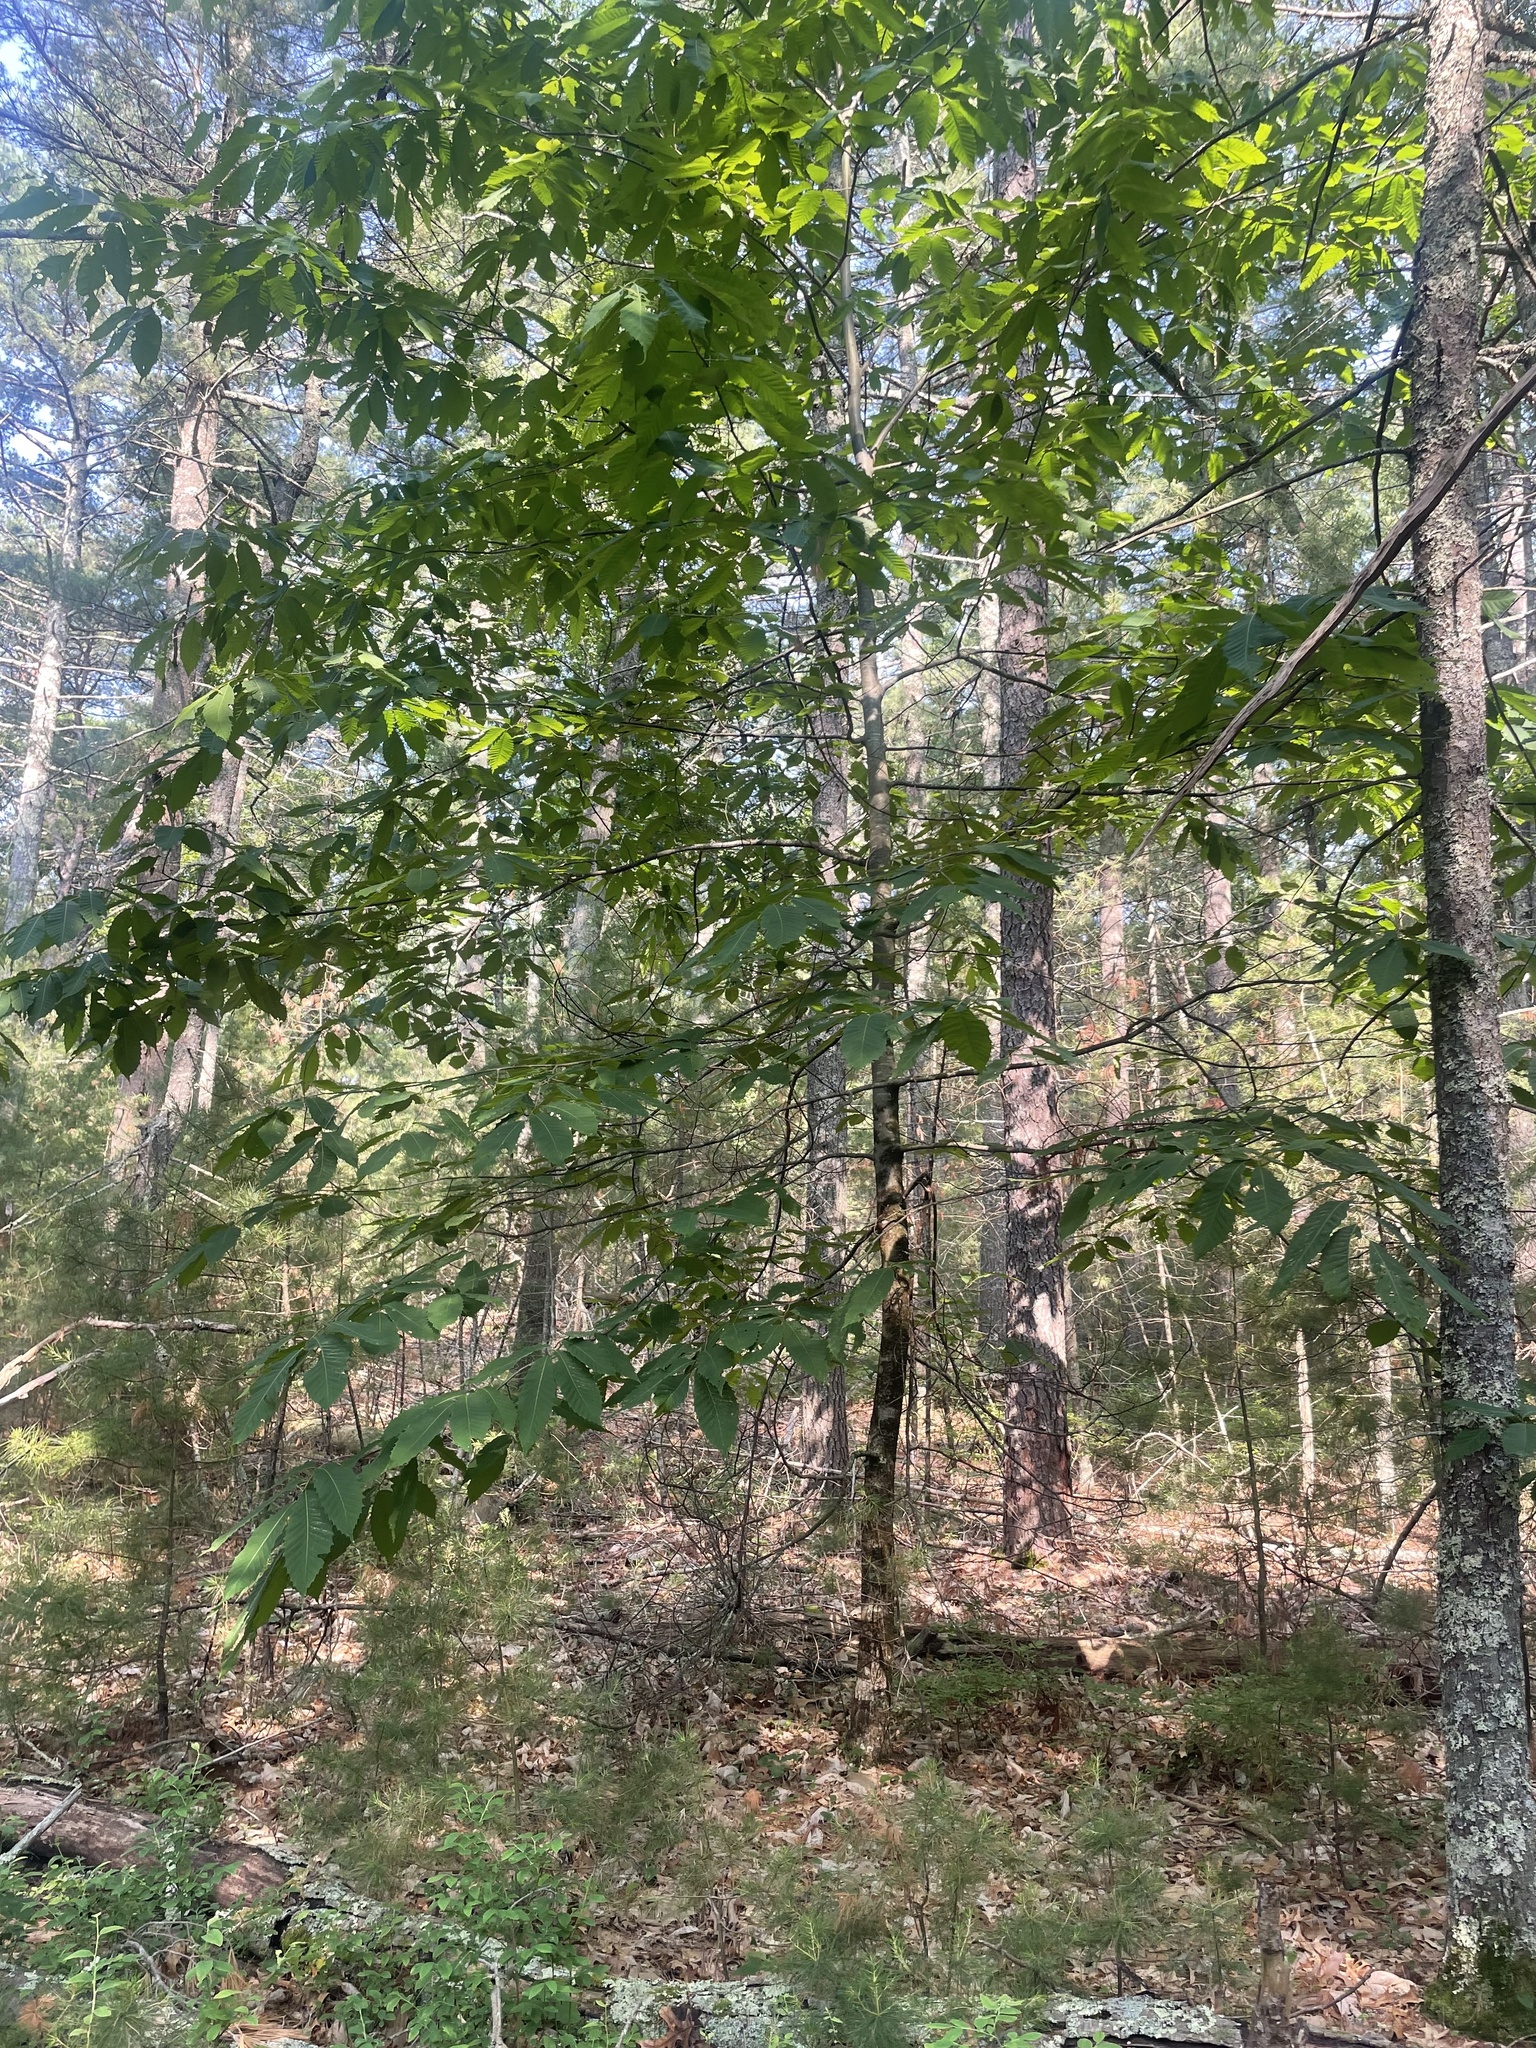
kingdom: Plantae
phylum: Tracheophyta
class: Magnoliopsida
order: Fagales
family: Fagaceae
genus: Castanea
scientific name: Castanea dentata
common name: American chestnut
